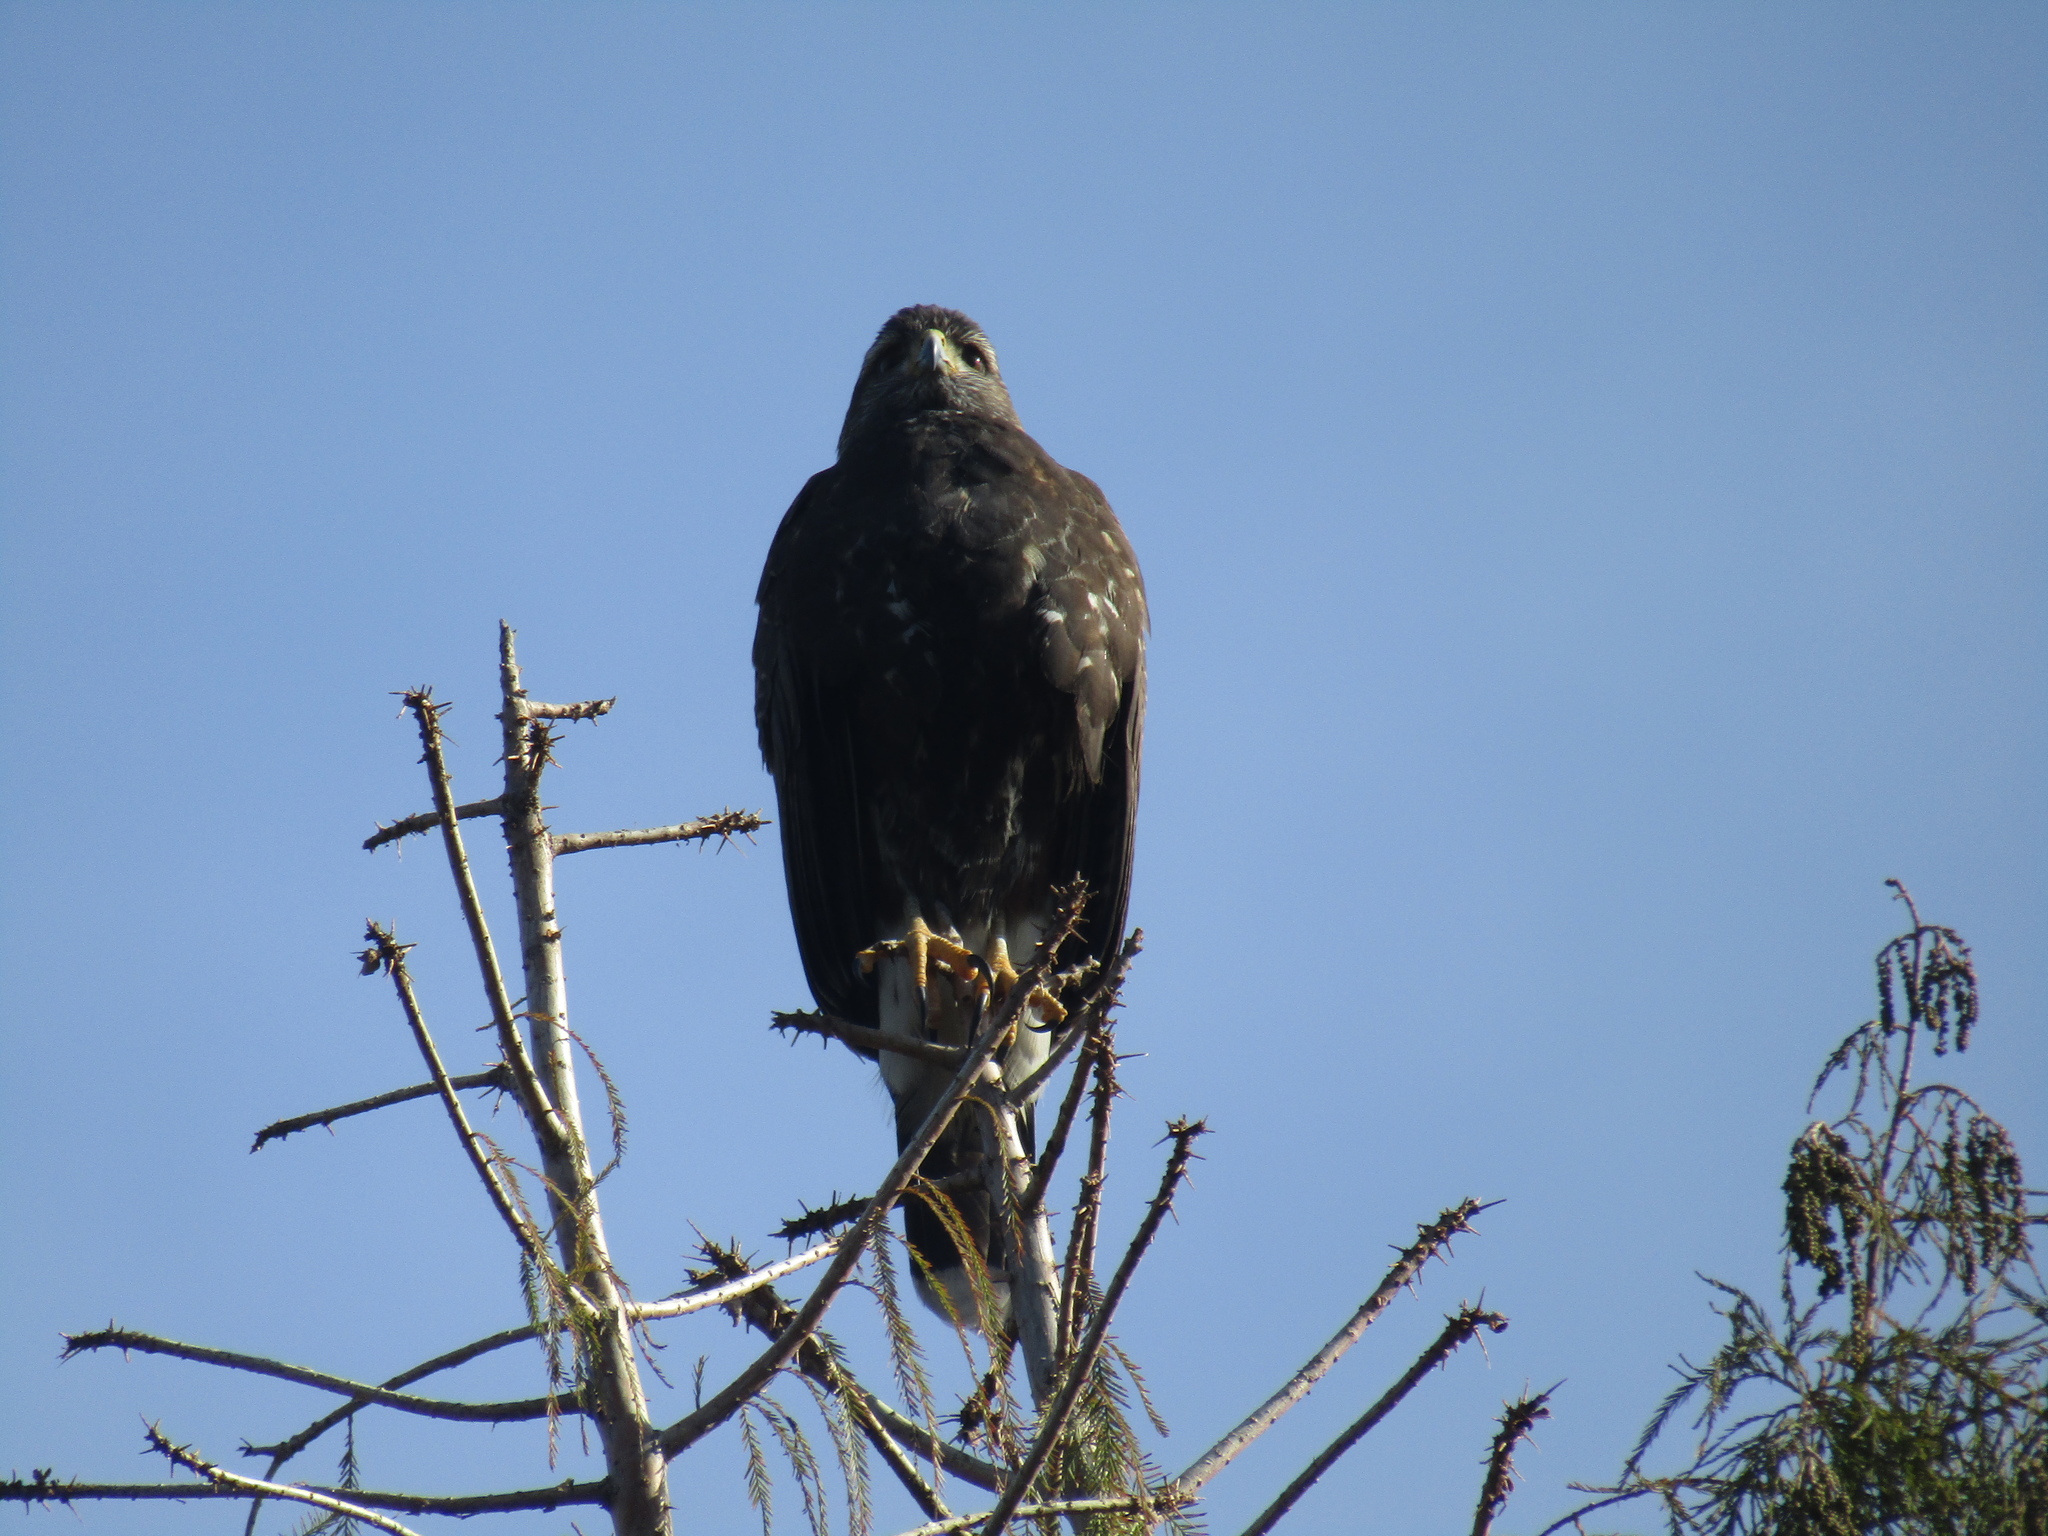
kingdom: Animalia
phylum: Chordata
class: Aves
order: Accipitriformes
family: Accipitridae
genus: Parabuteo
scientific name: Parabuteo unicinctus
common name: Harris's hawk
